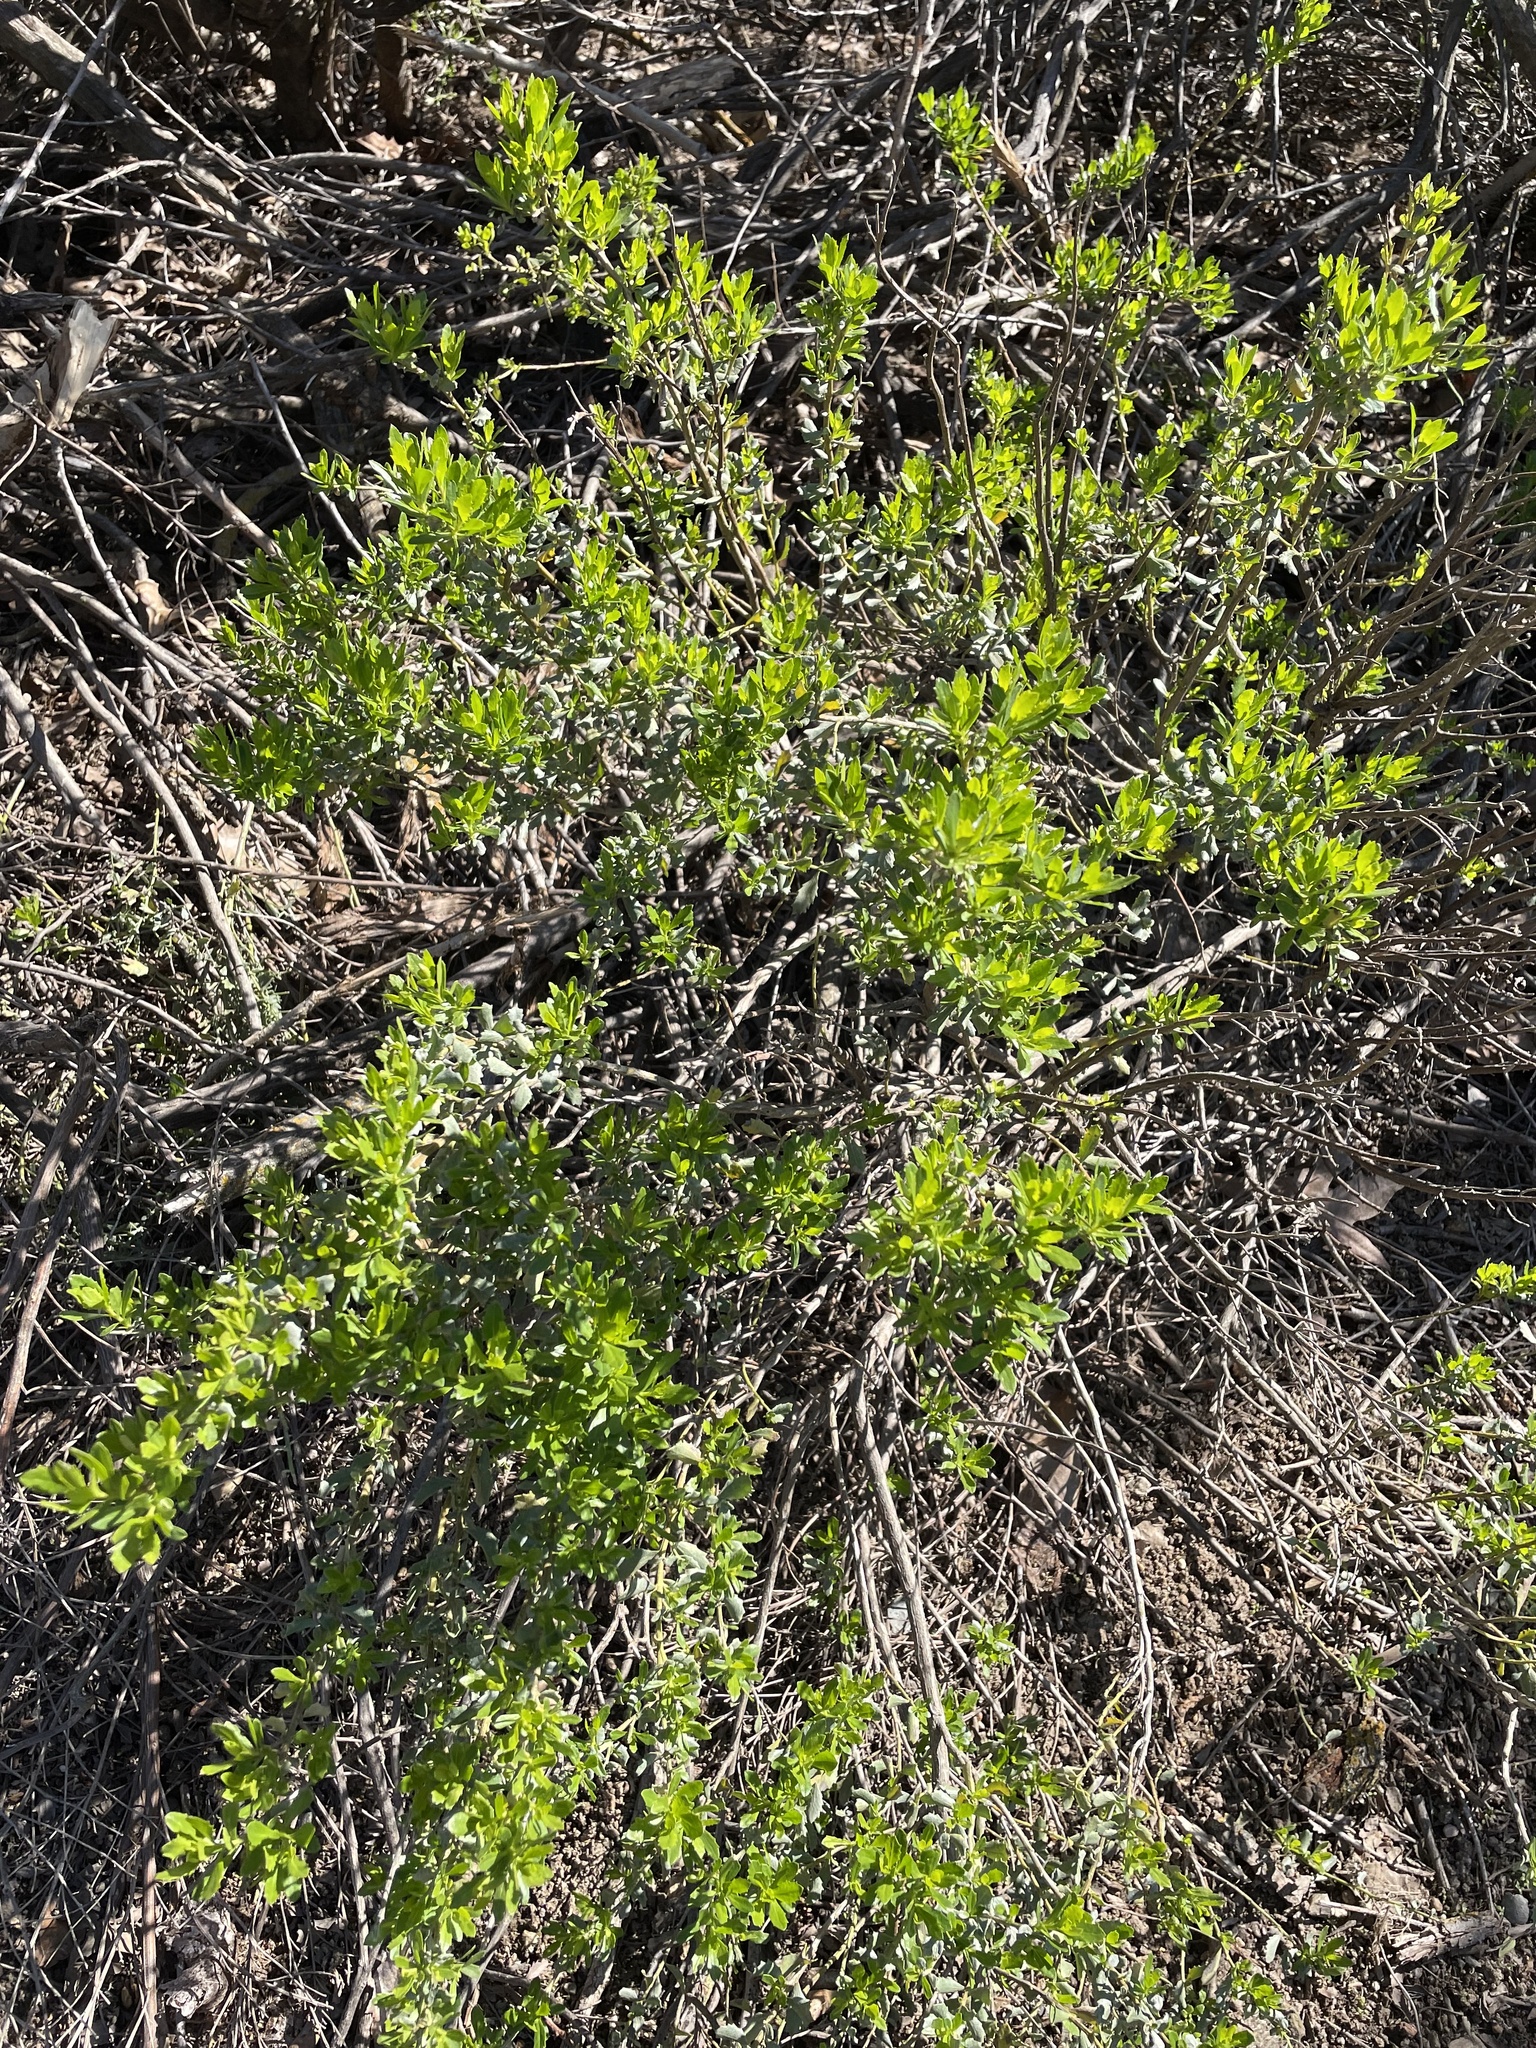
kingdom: Plantae
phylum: Tracheophyta
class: Magnoliopsida
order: Asterales
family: Asteraceae
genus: Baccharis
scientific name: Baccharis pilularis
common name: Coyotebrush
